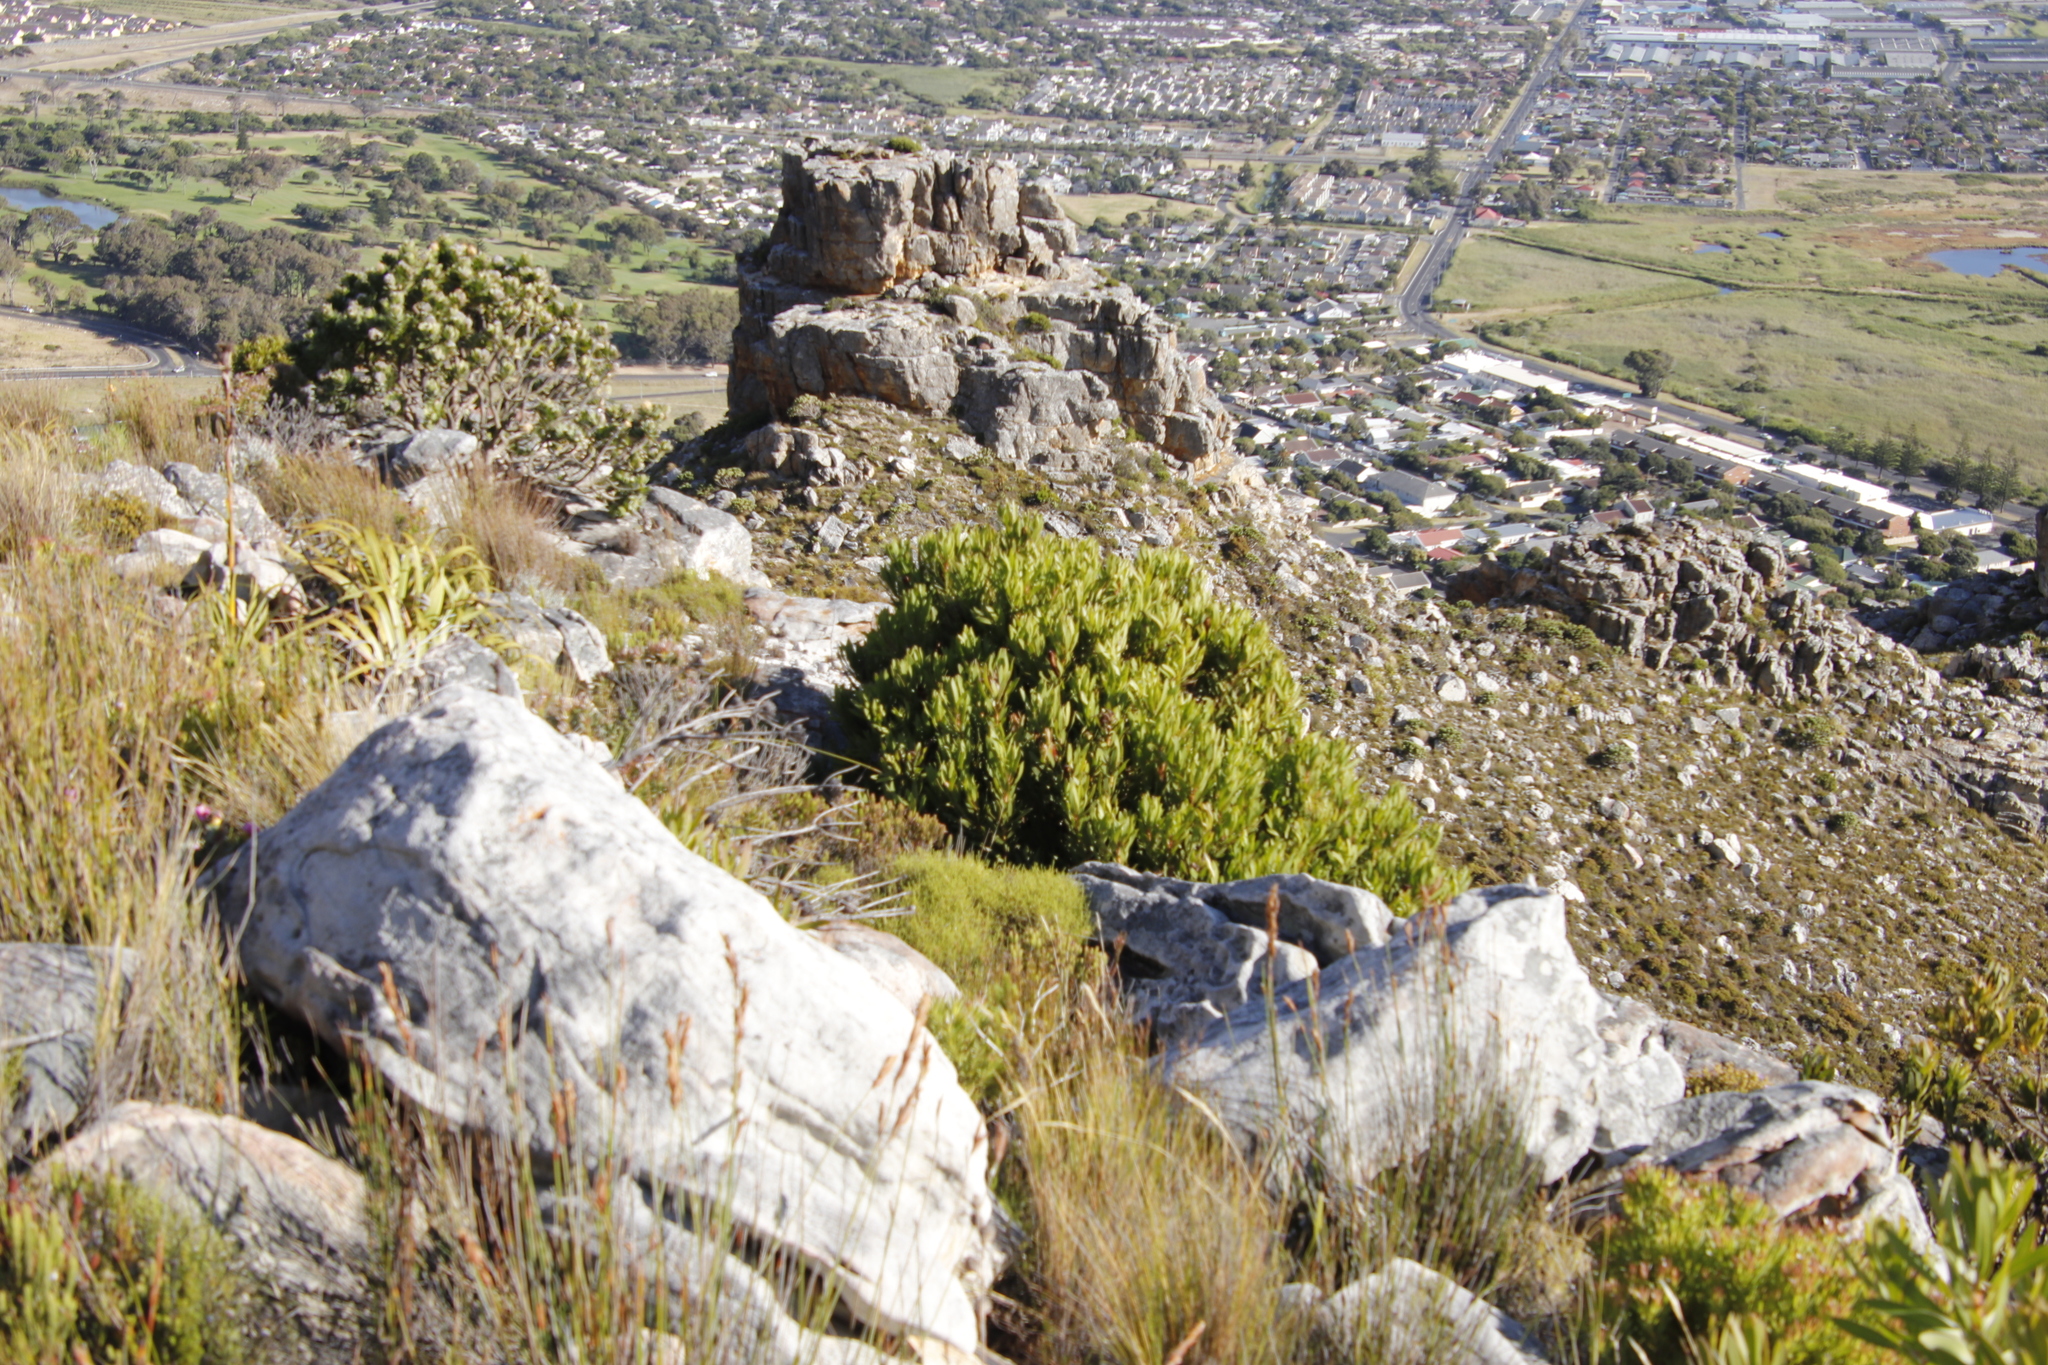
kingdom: Plantae
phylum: Tracheophyta
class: Magnoliopsida
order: Proteales
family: Proteaceae
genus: Protea
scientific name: Protea lepidocarpodendron
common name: Black-bearded protea
